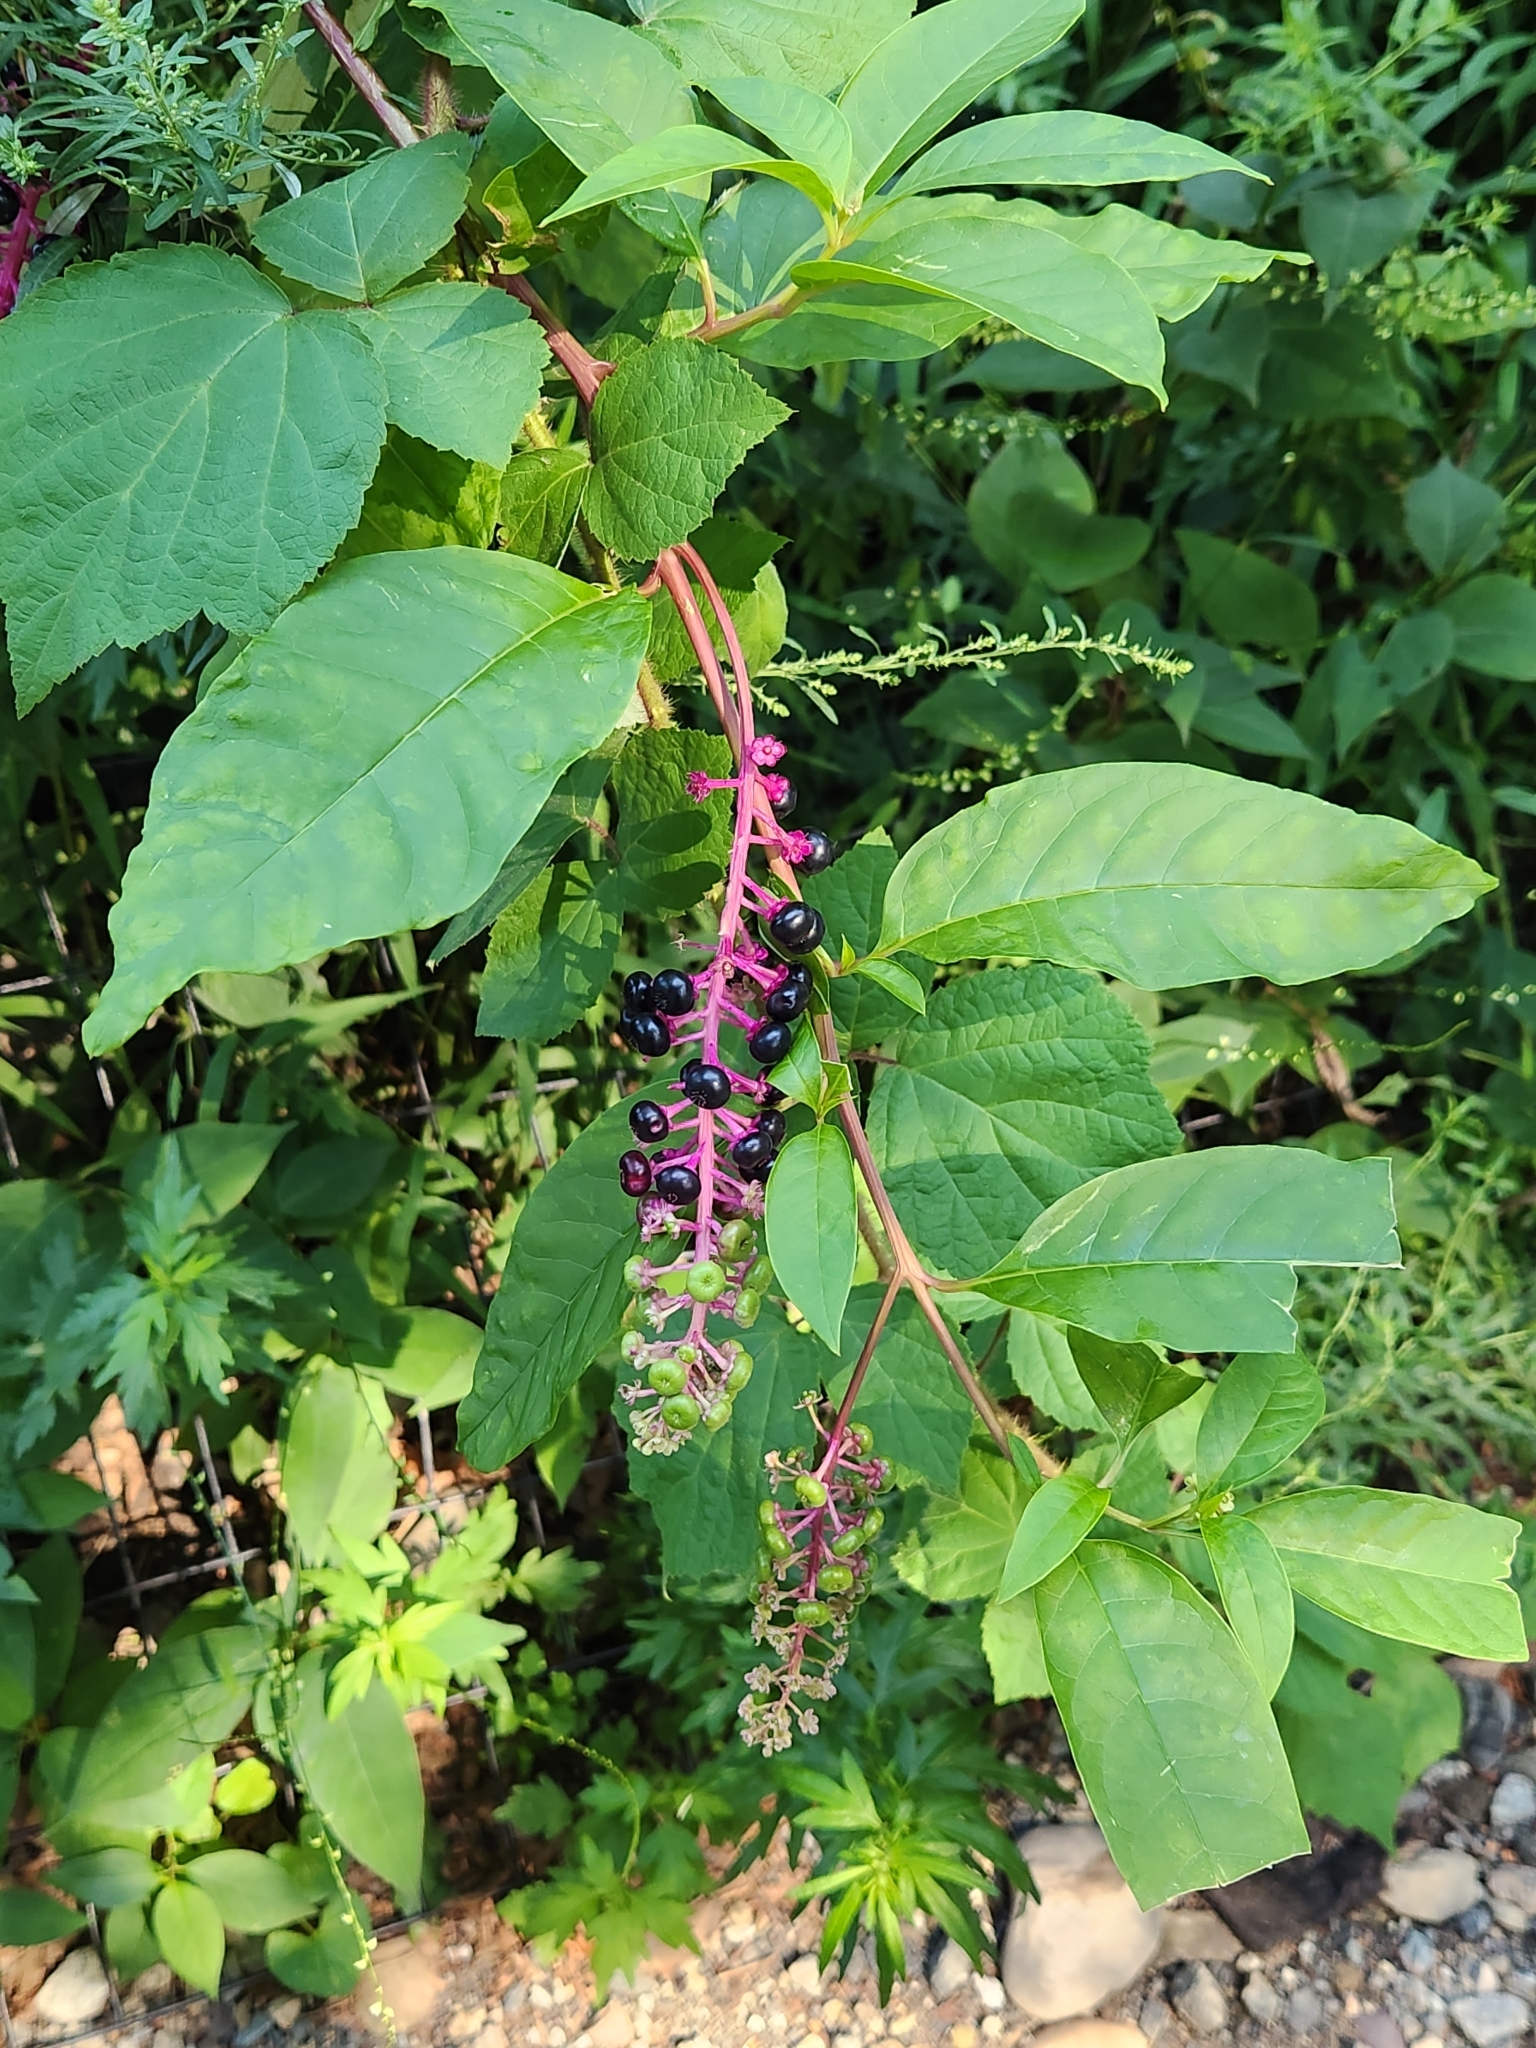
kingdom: Plantae
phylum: Tracheophyta
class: Magnoliopsida
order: Caryophyllales
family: Phytolaccaceae
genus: Phytolacca
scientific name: Phytolacca americana
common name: American pokeweed
